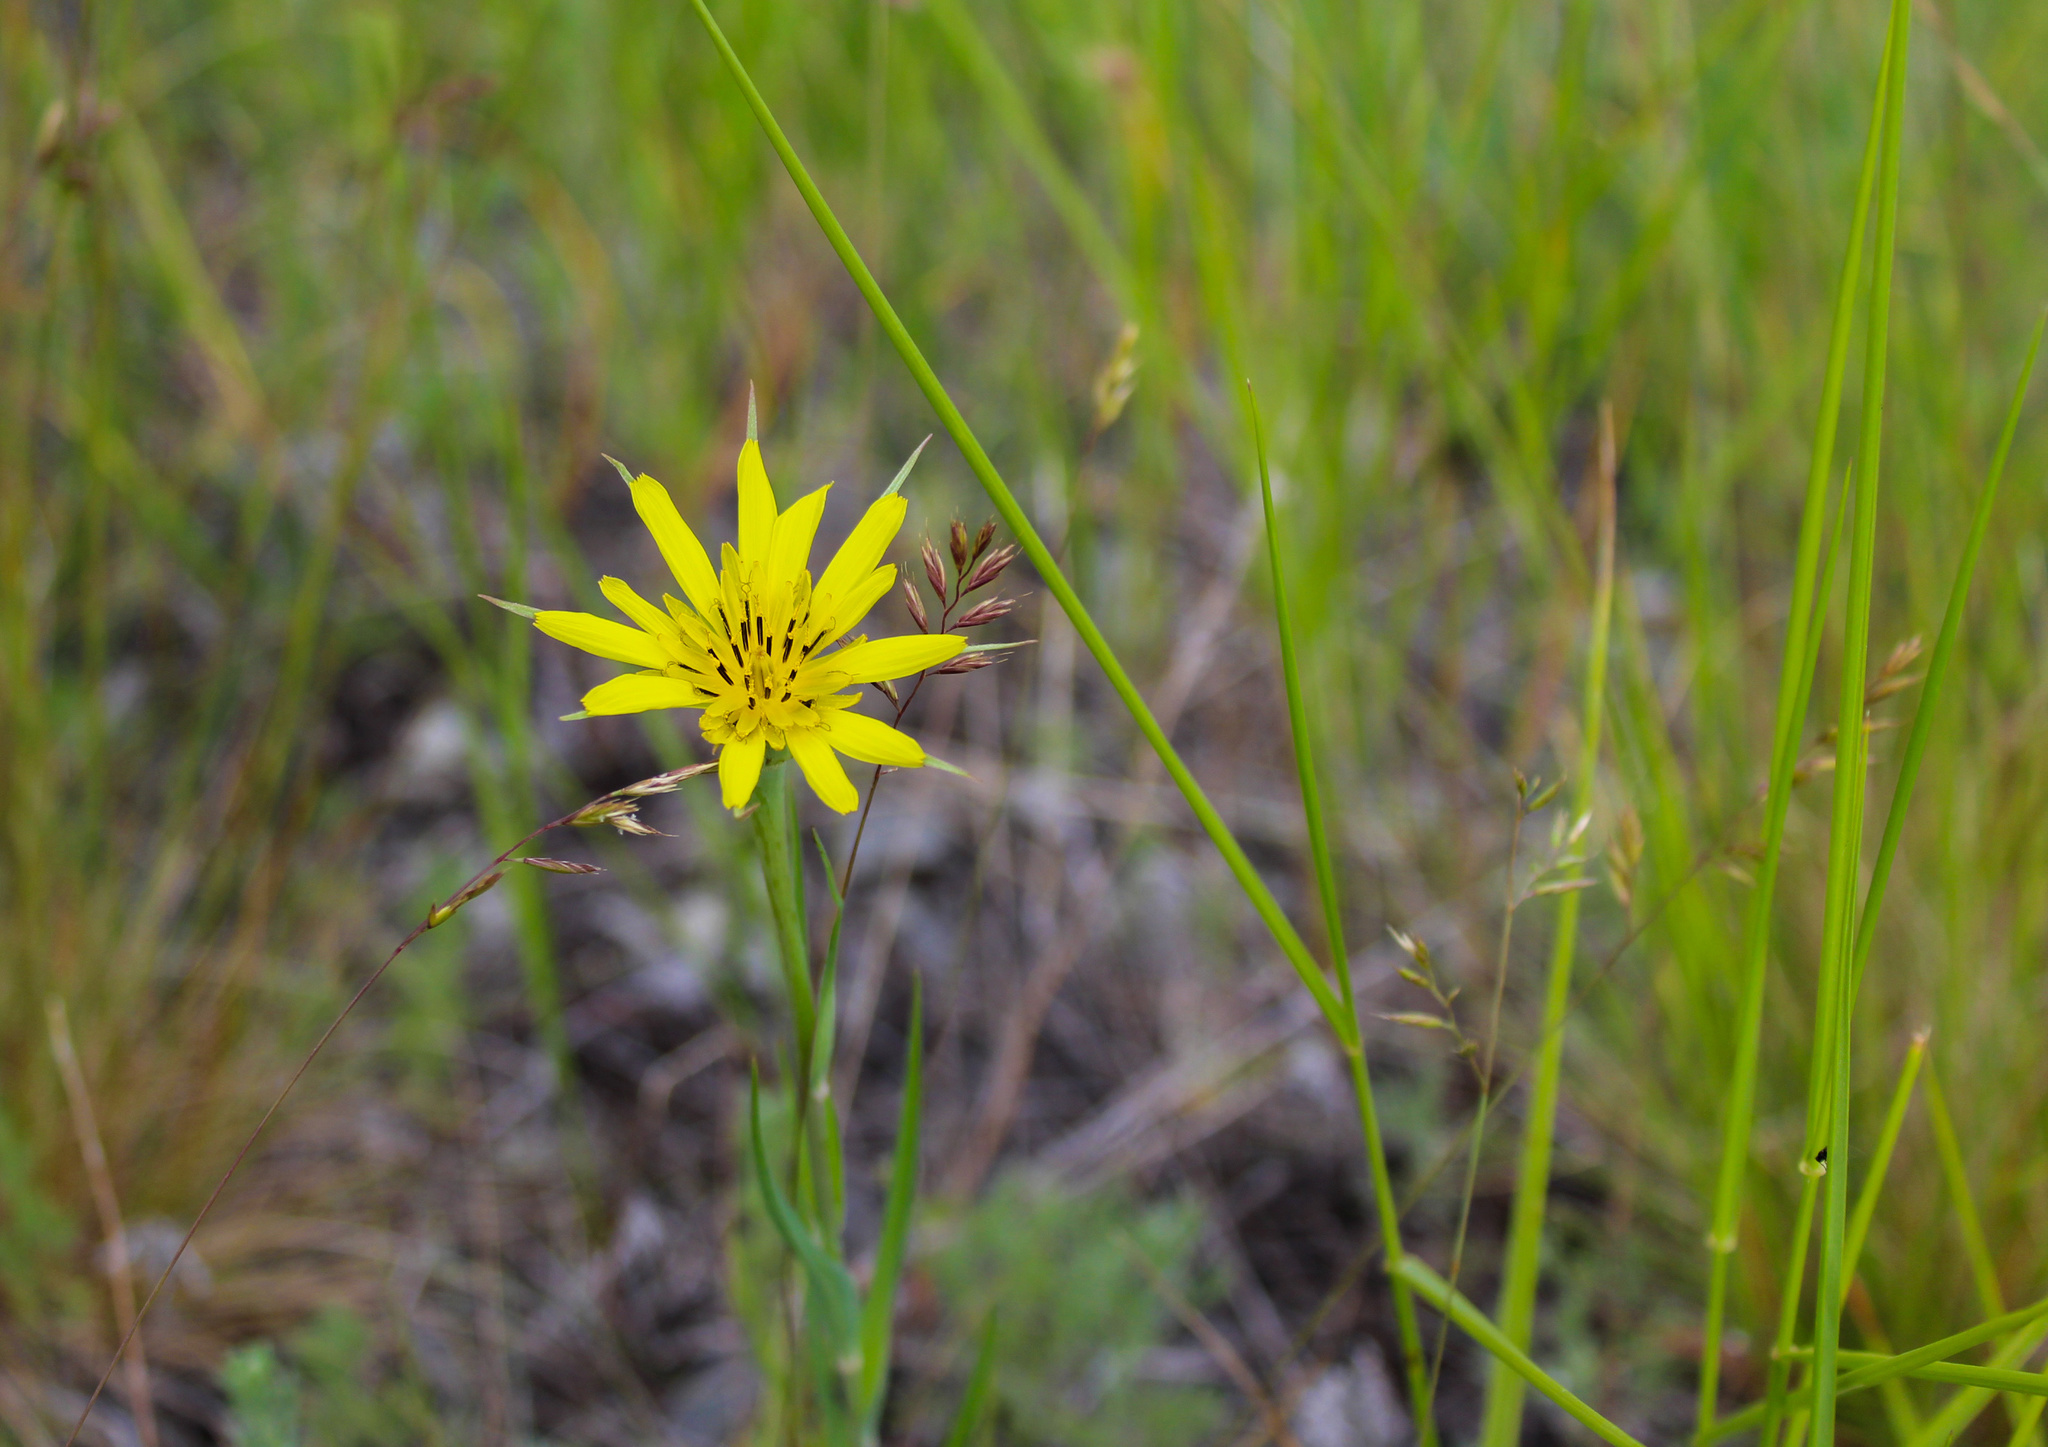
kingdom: Plantae
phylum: Tracheophyta
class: Magnoliopsida
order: Asterales
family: Asteraceae
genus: Tragopogon
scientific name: Tragopogon dubius
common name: Yellow salsify
